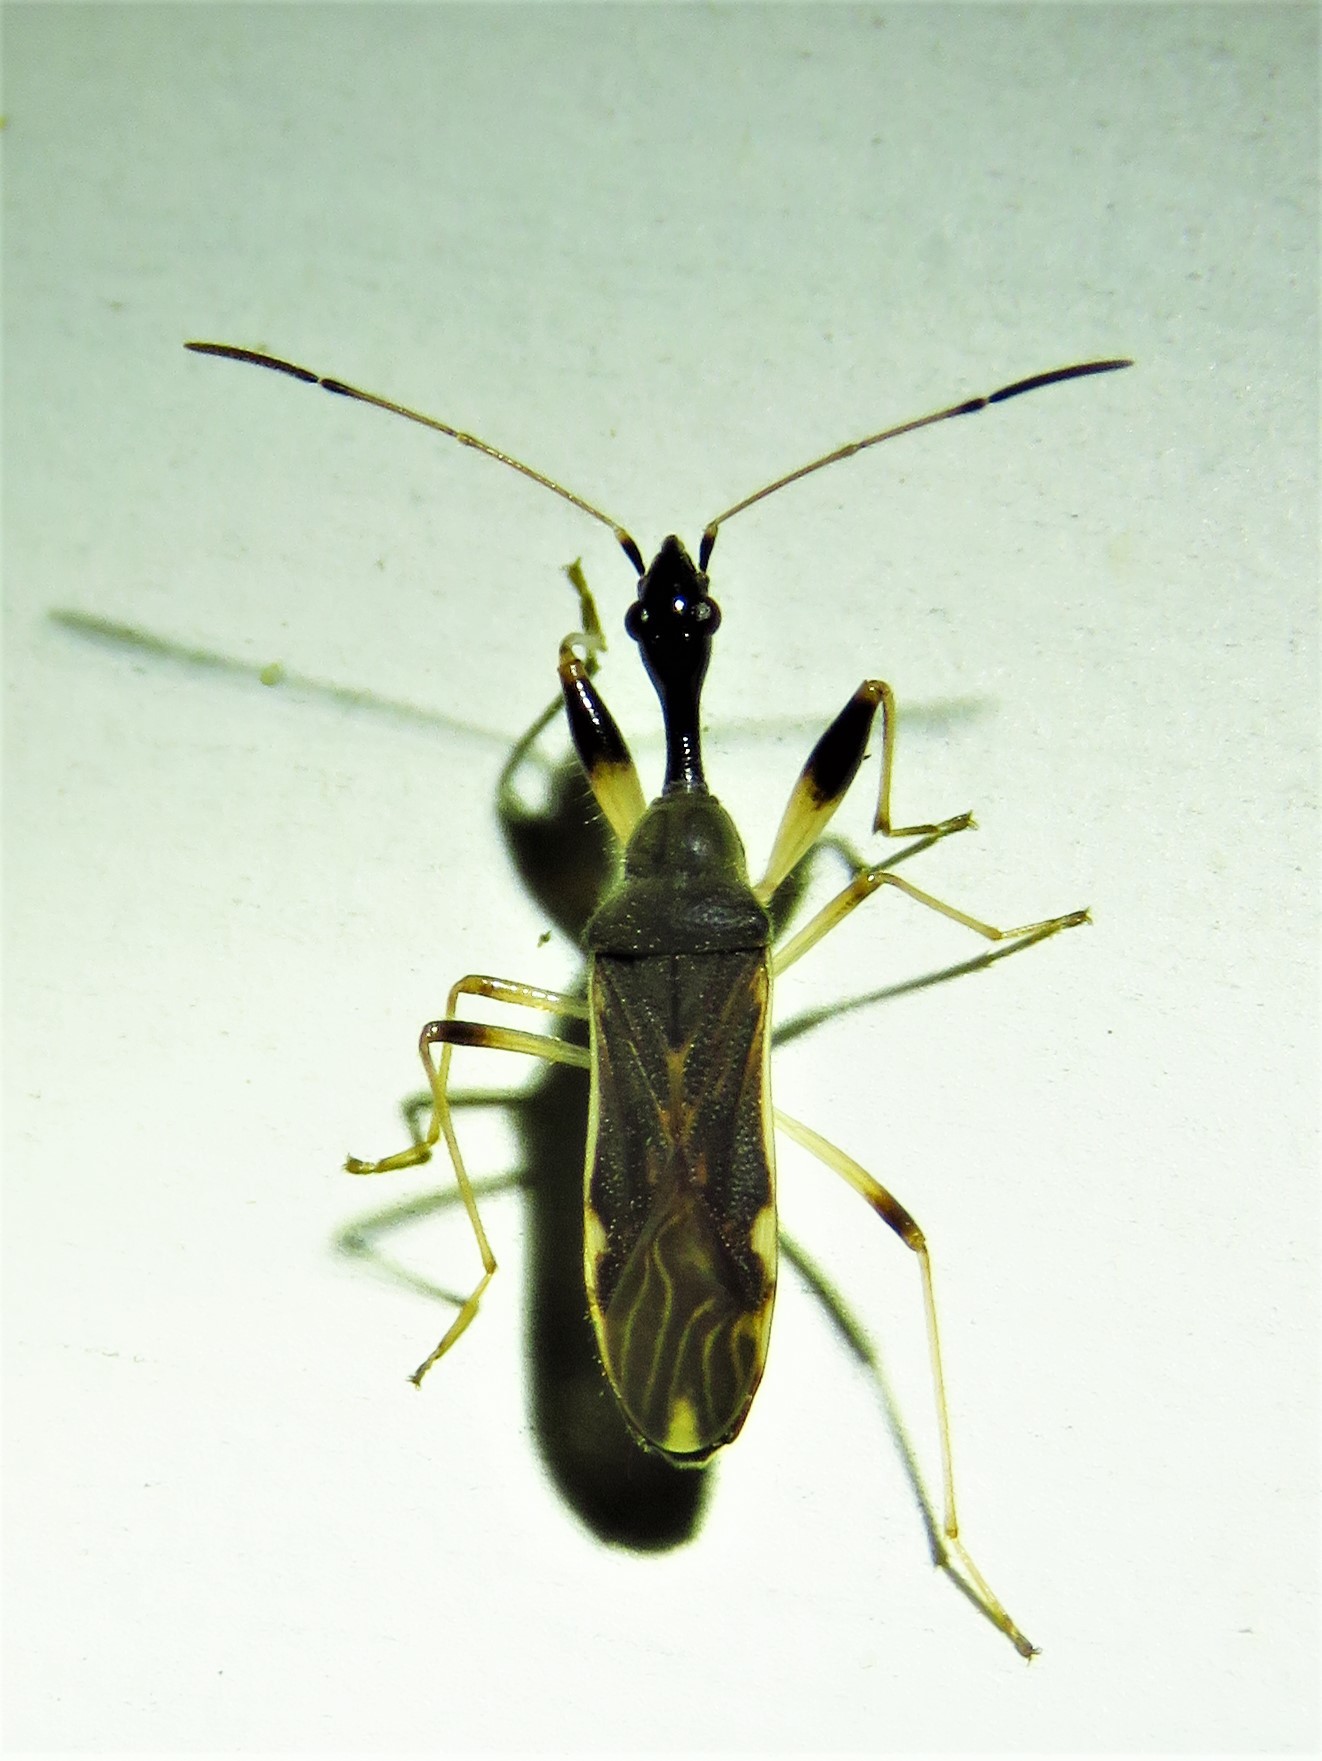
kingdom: Animalia
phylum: Arthropoda
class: Insecta
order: Hemiptera
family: Rhyparochromidae
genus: Myodocha
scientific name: Myodocha serripes
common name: Long-necked seed bug
